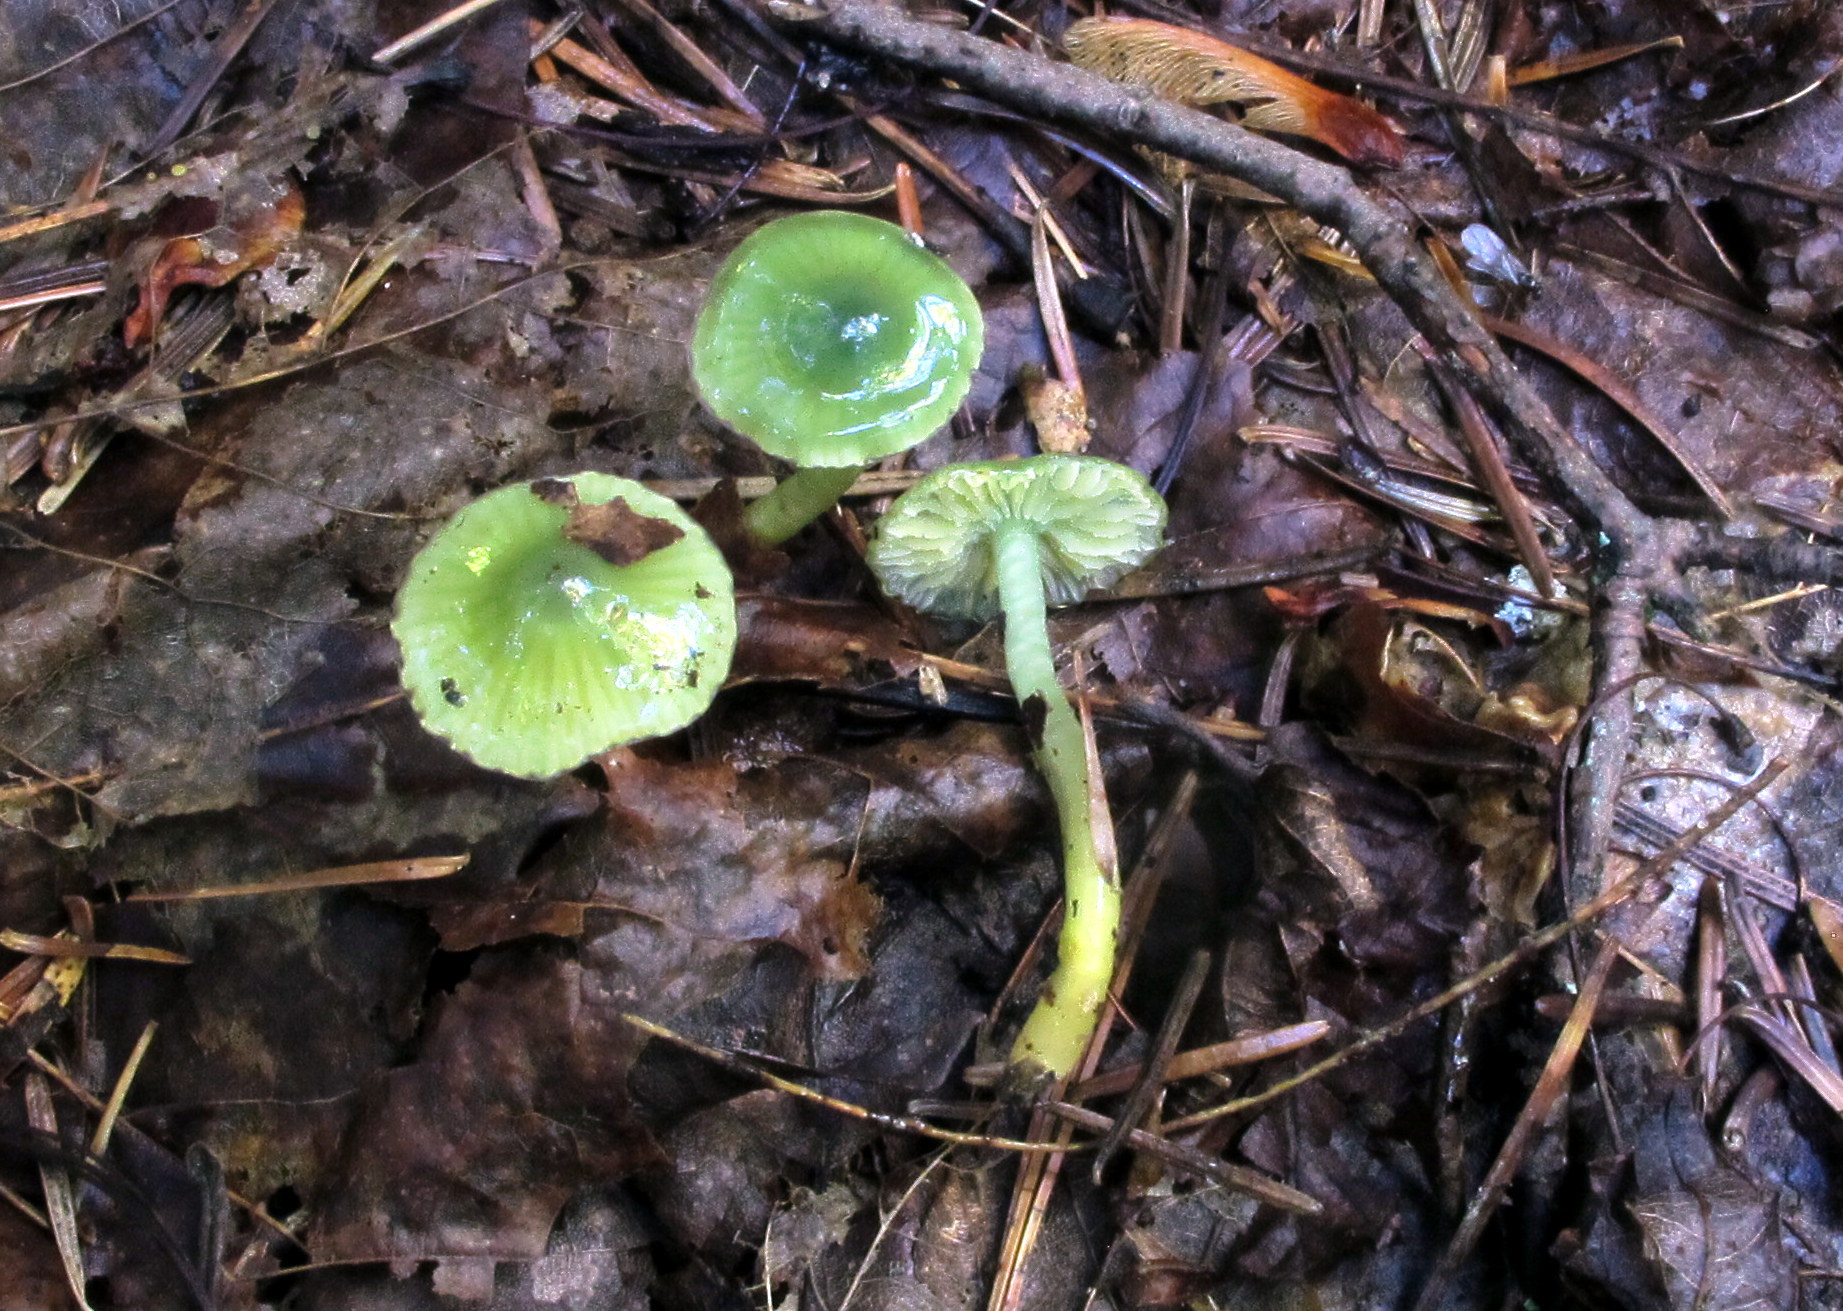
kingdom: Fungi
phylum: Basidiomycota
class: Agaricomycetes
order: Agaricales
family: Hygrophoraceae
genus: Gliophorus
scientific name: Gliophorus psittacinus
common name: Parrot wax-cap
